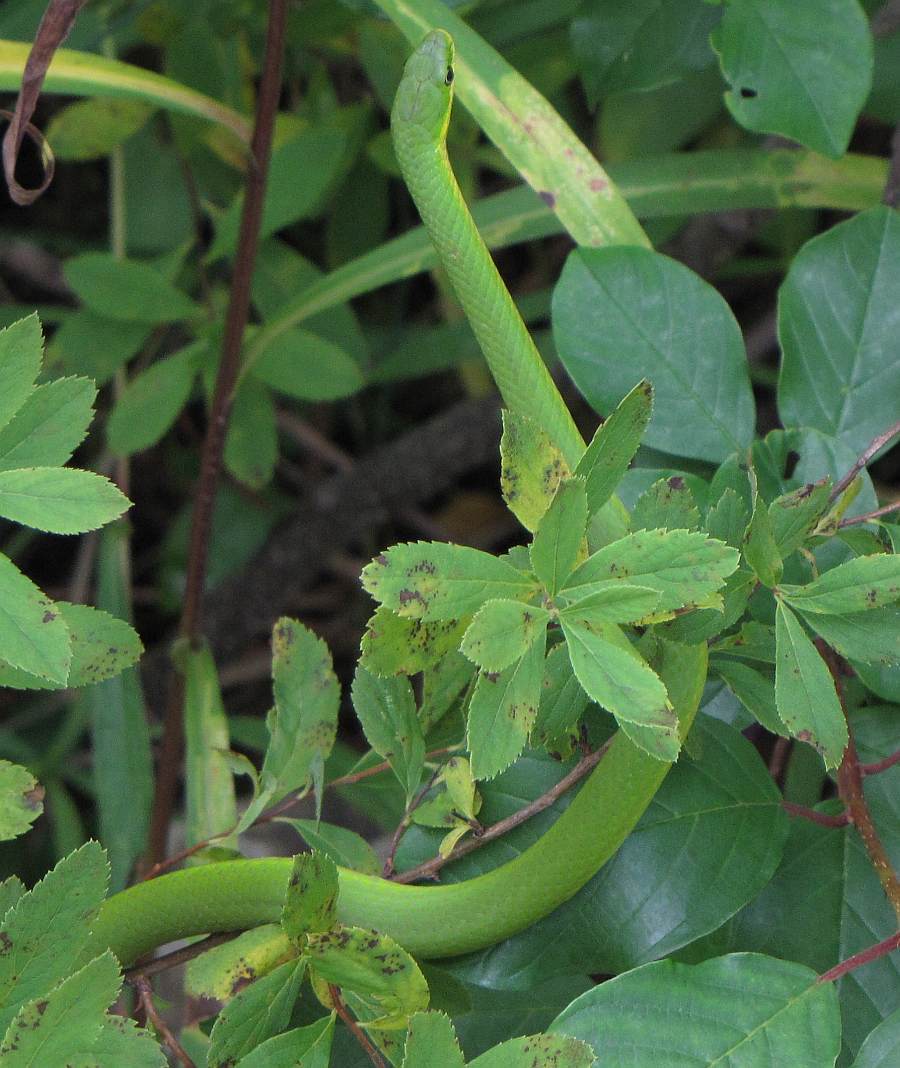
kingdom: Animalia
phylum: Chordata
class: Squamata
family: Colubridae
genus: Opheodrys
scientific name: Opheodrys vernalis
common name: Smooth green snake
